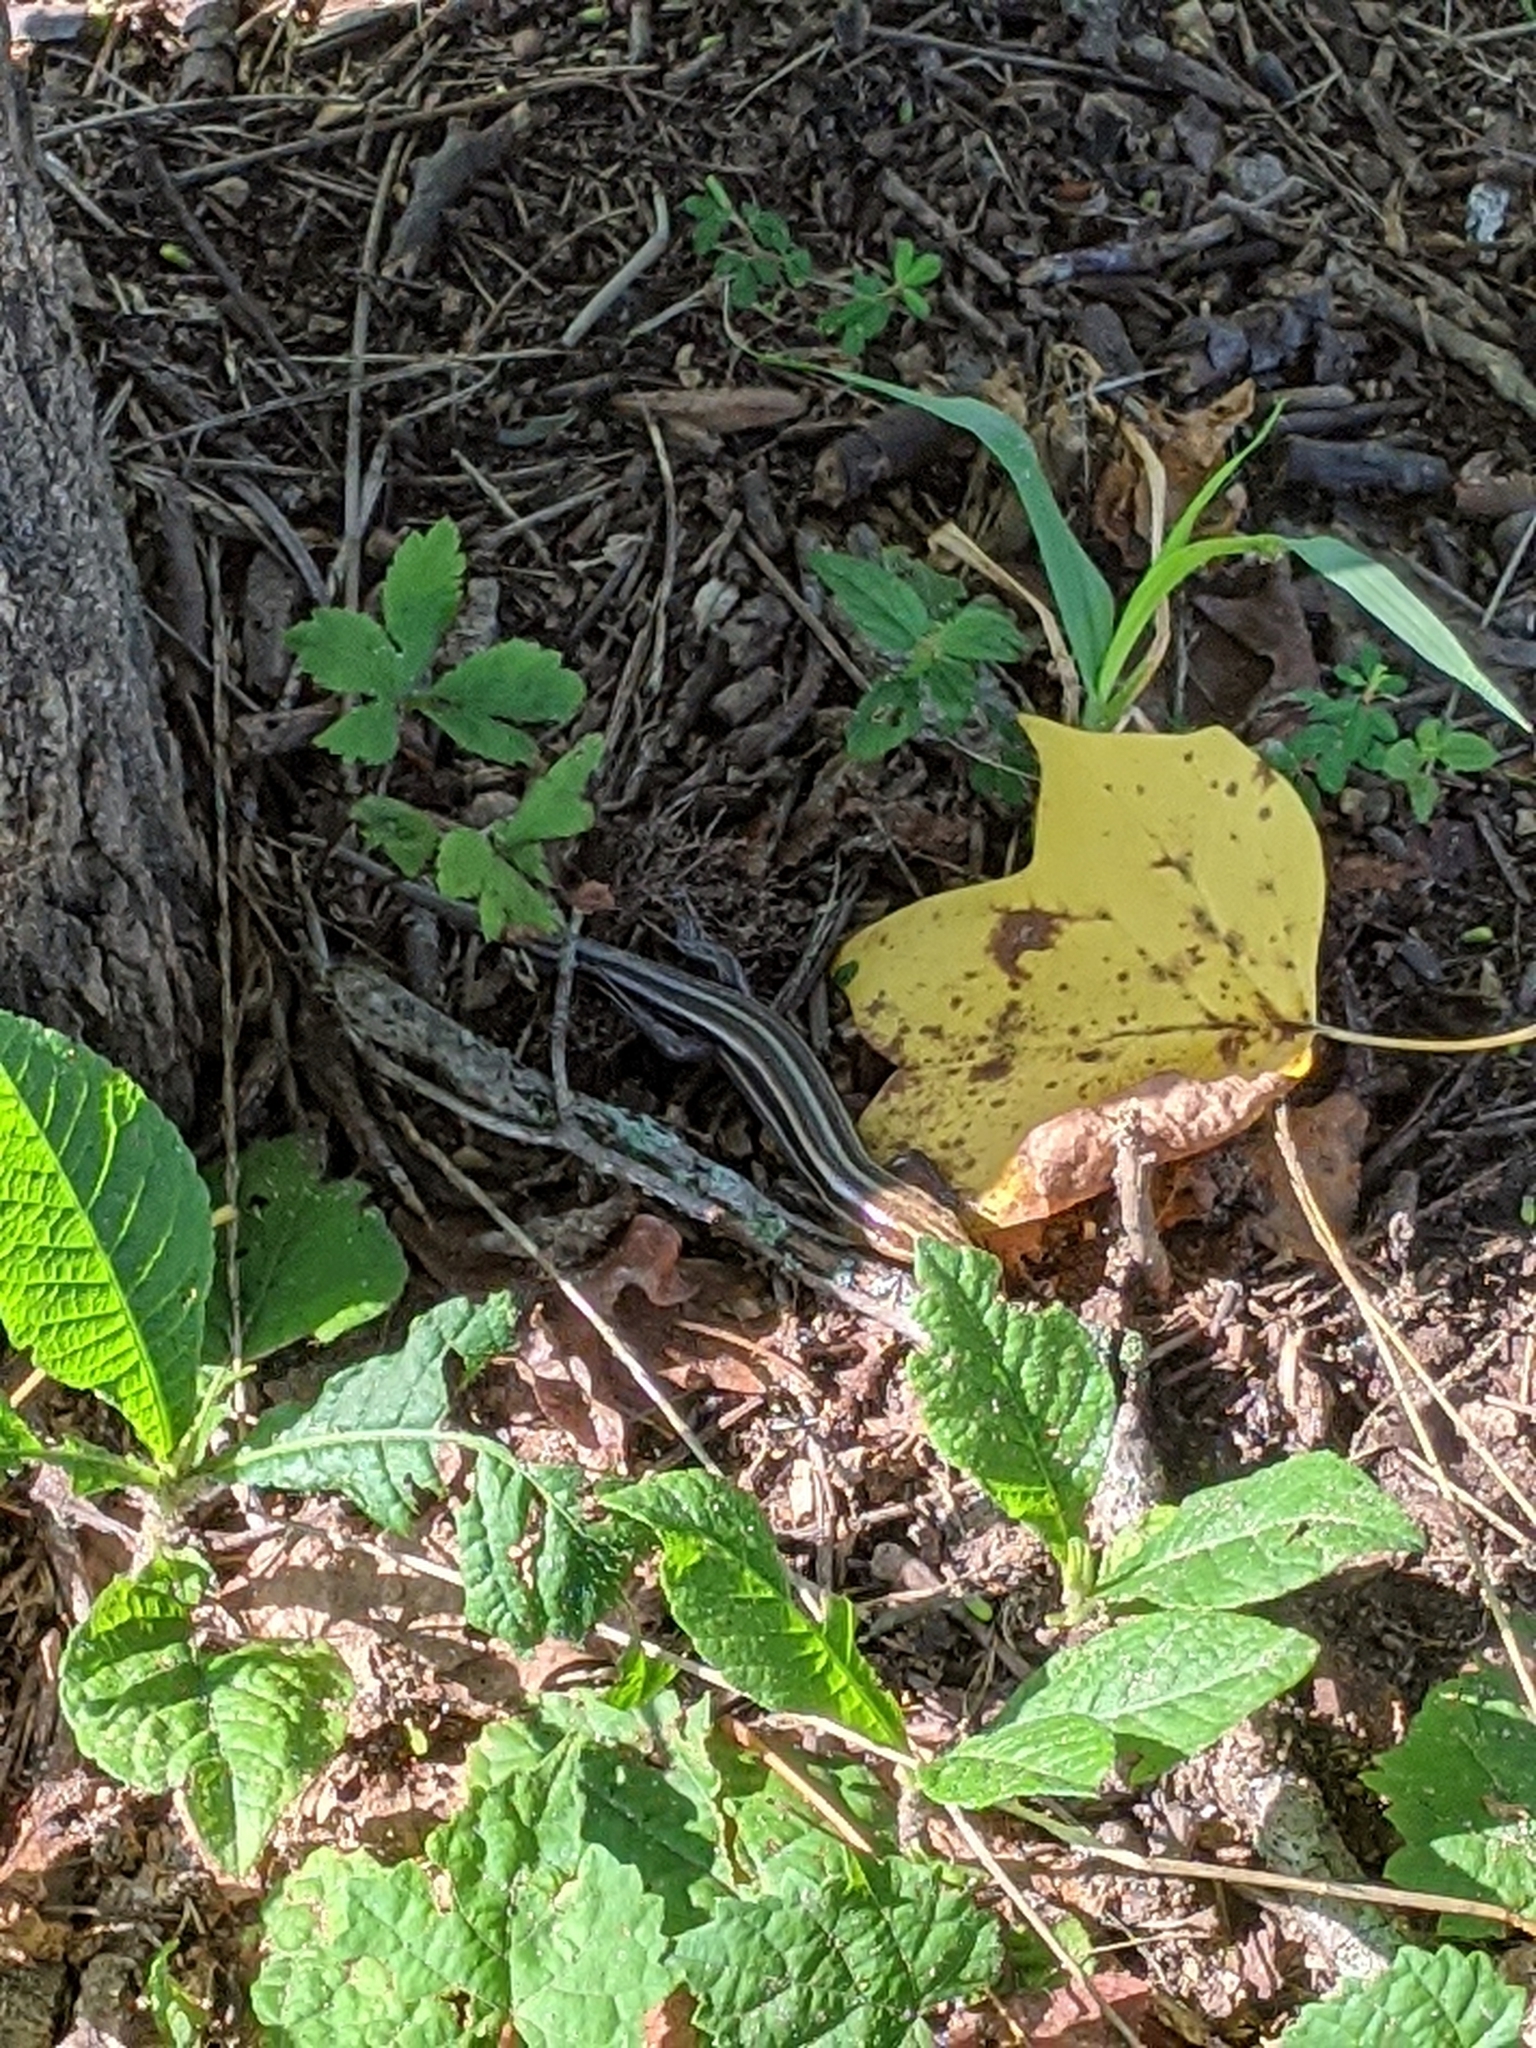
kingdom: Animalia
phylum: Chordata
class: Squamata
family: Scincidae
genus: Plestiodon
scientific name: Plestiodon fasciatus
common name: Five-lined skink
